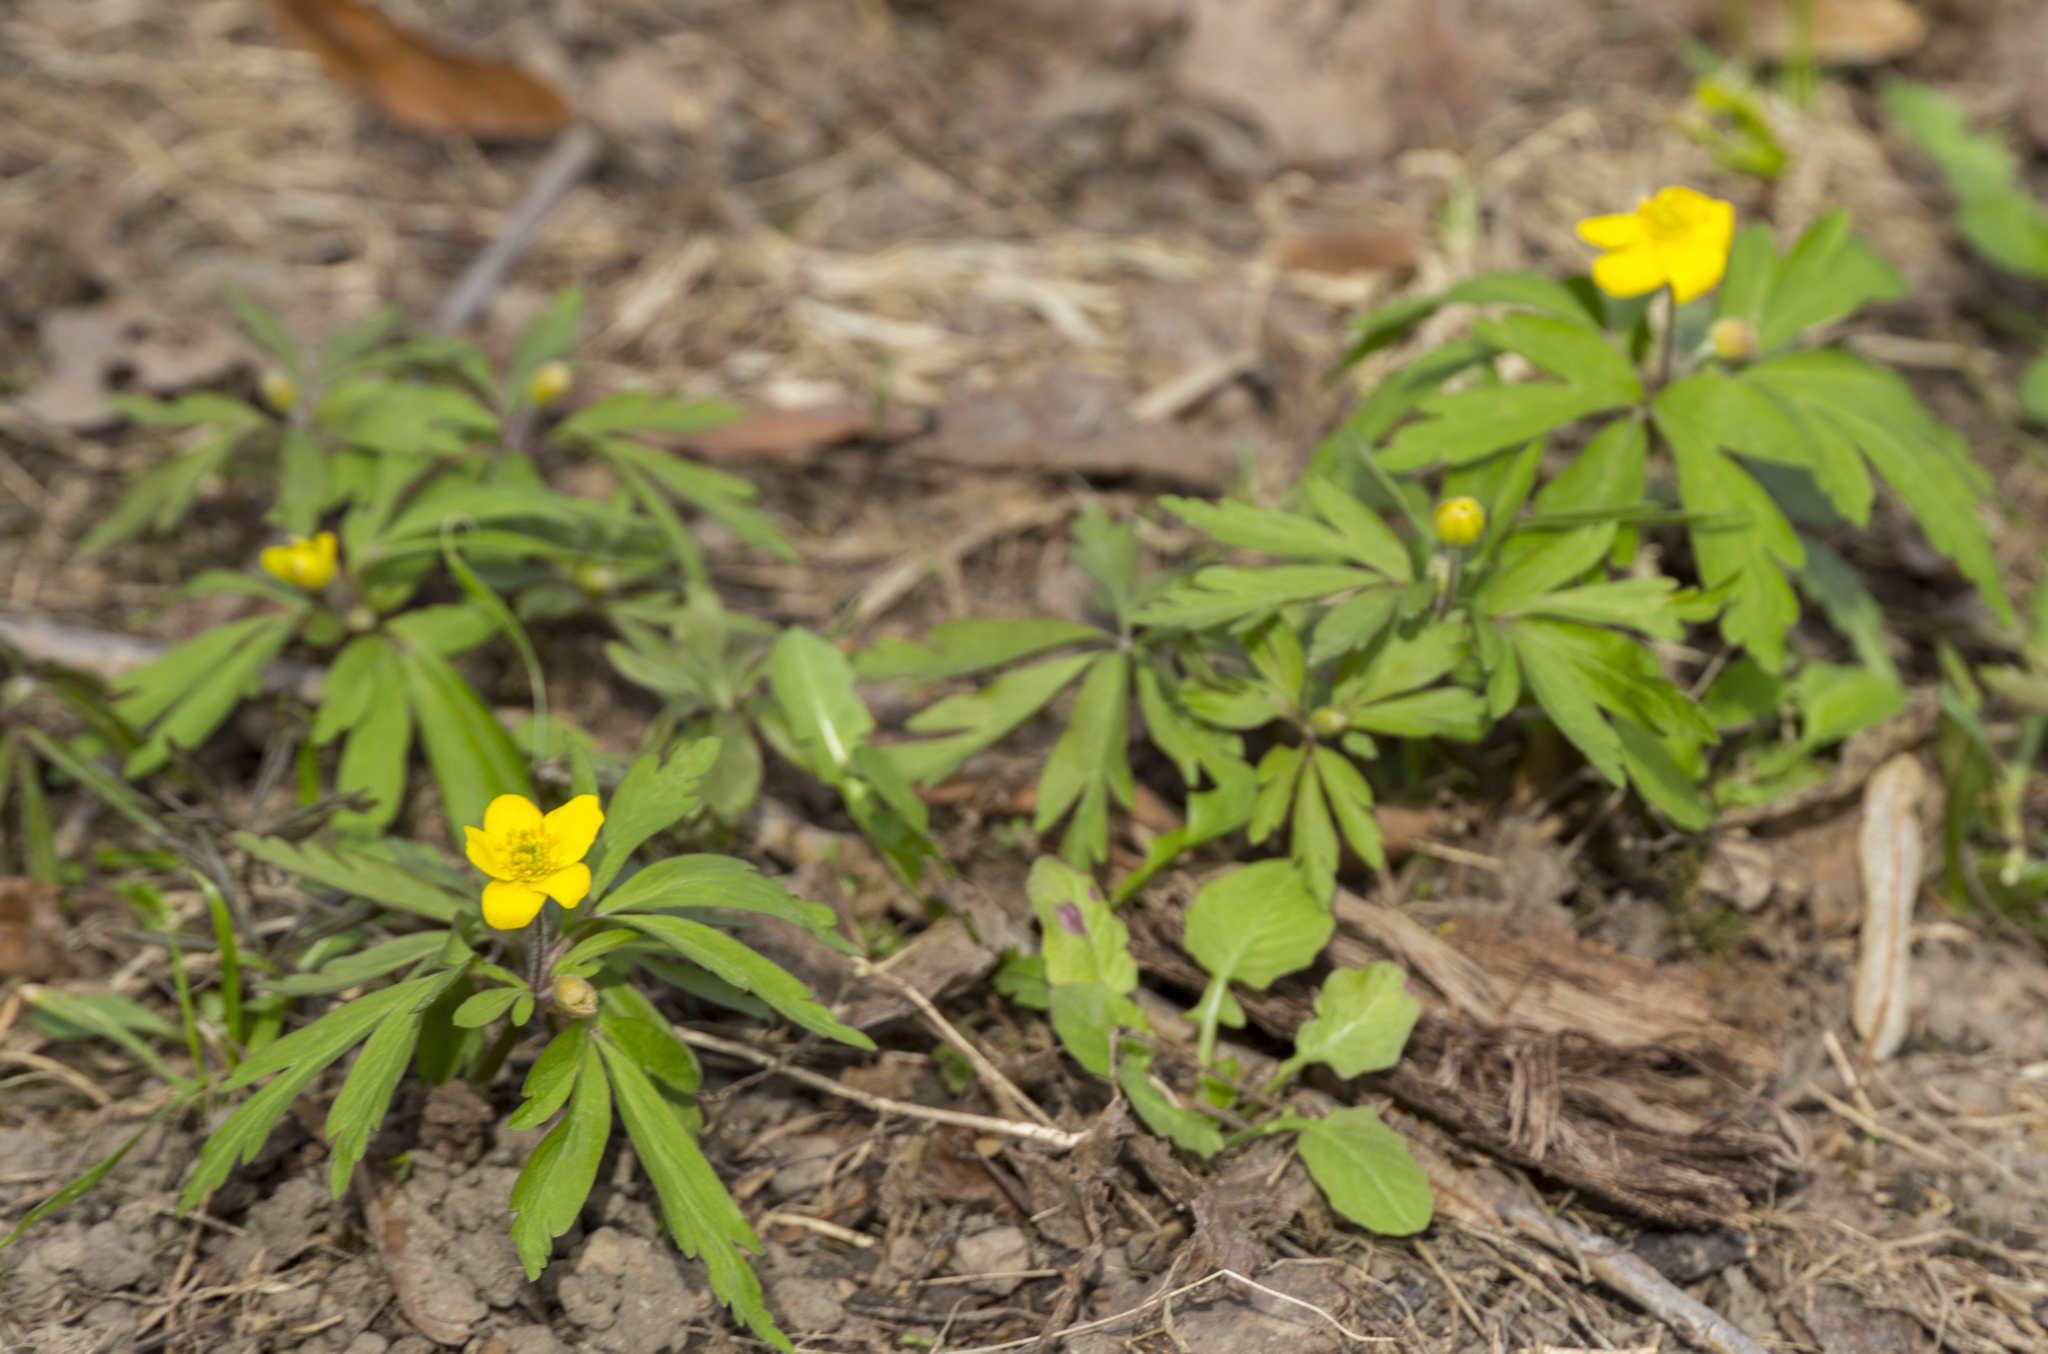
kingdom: Plantae
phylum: Tracheophyta
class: Magnoliopsida
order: Ranunculales
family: Ranunculaceae
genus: Anemone
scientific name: Anemone ranunculoides
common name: Yellow anemone
